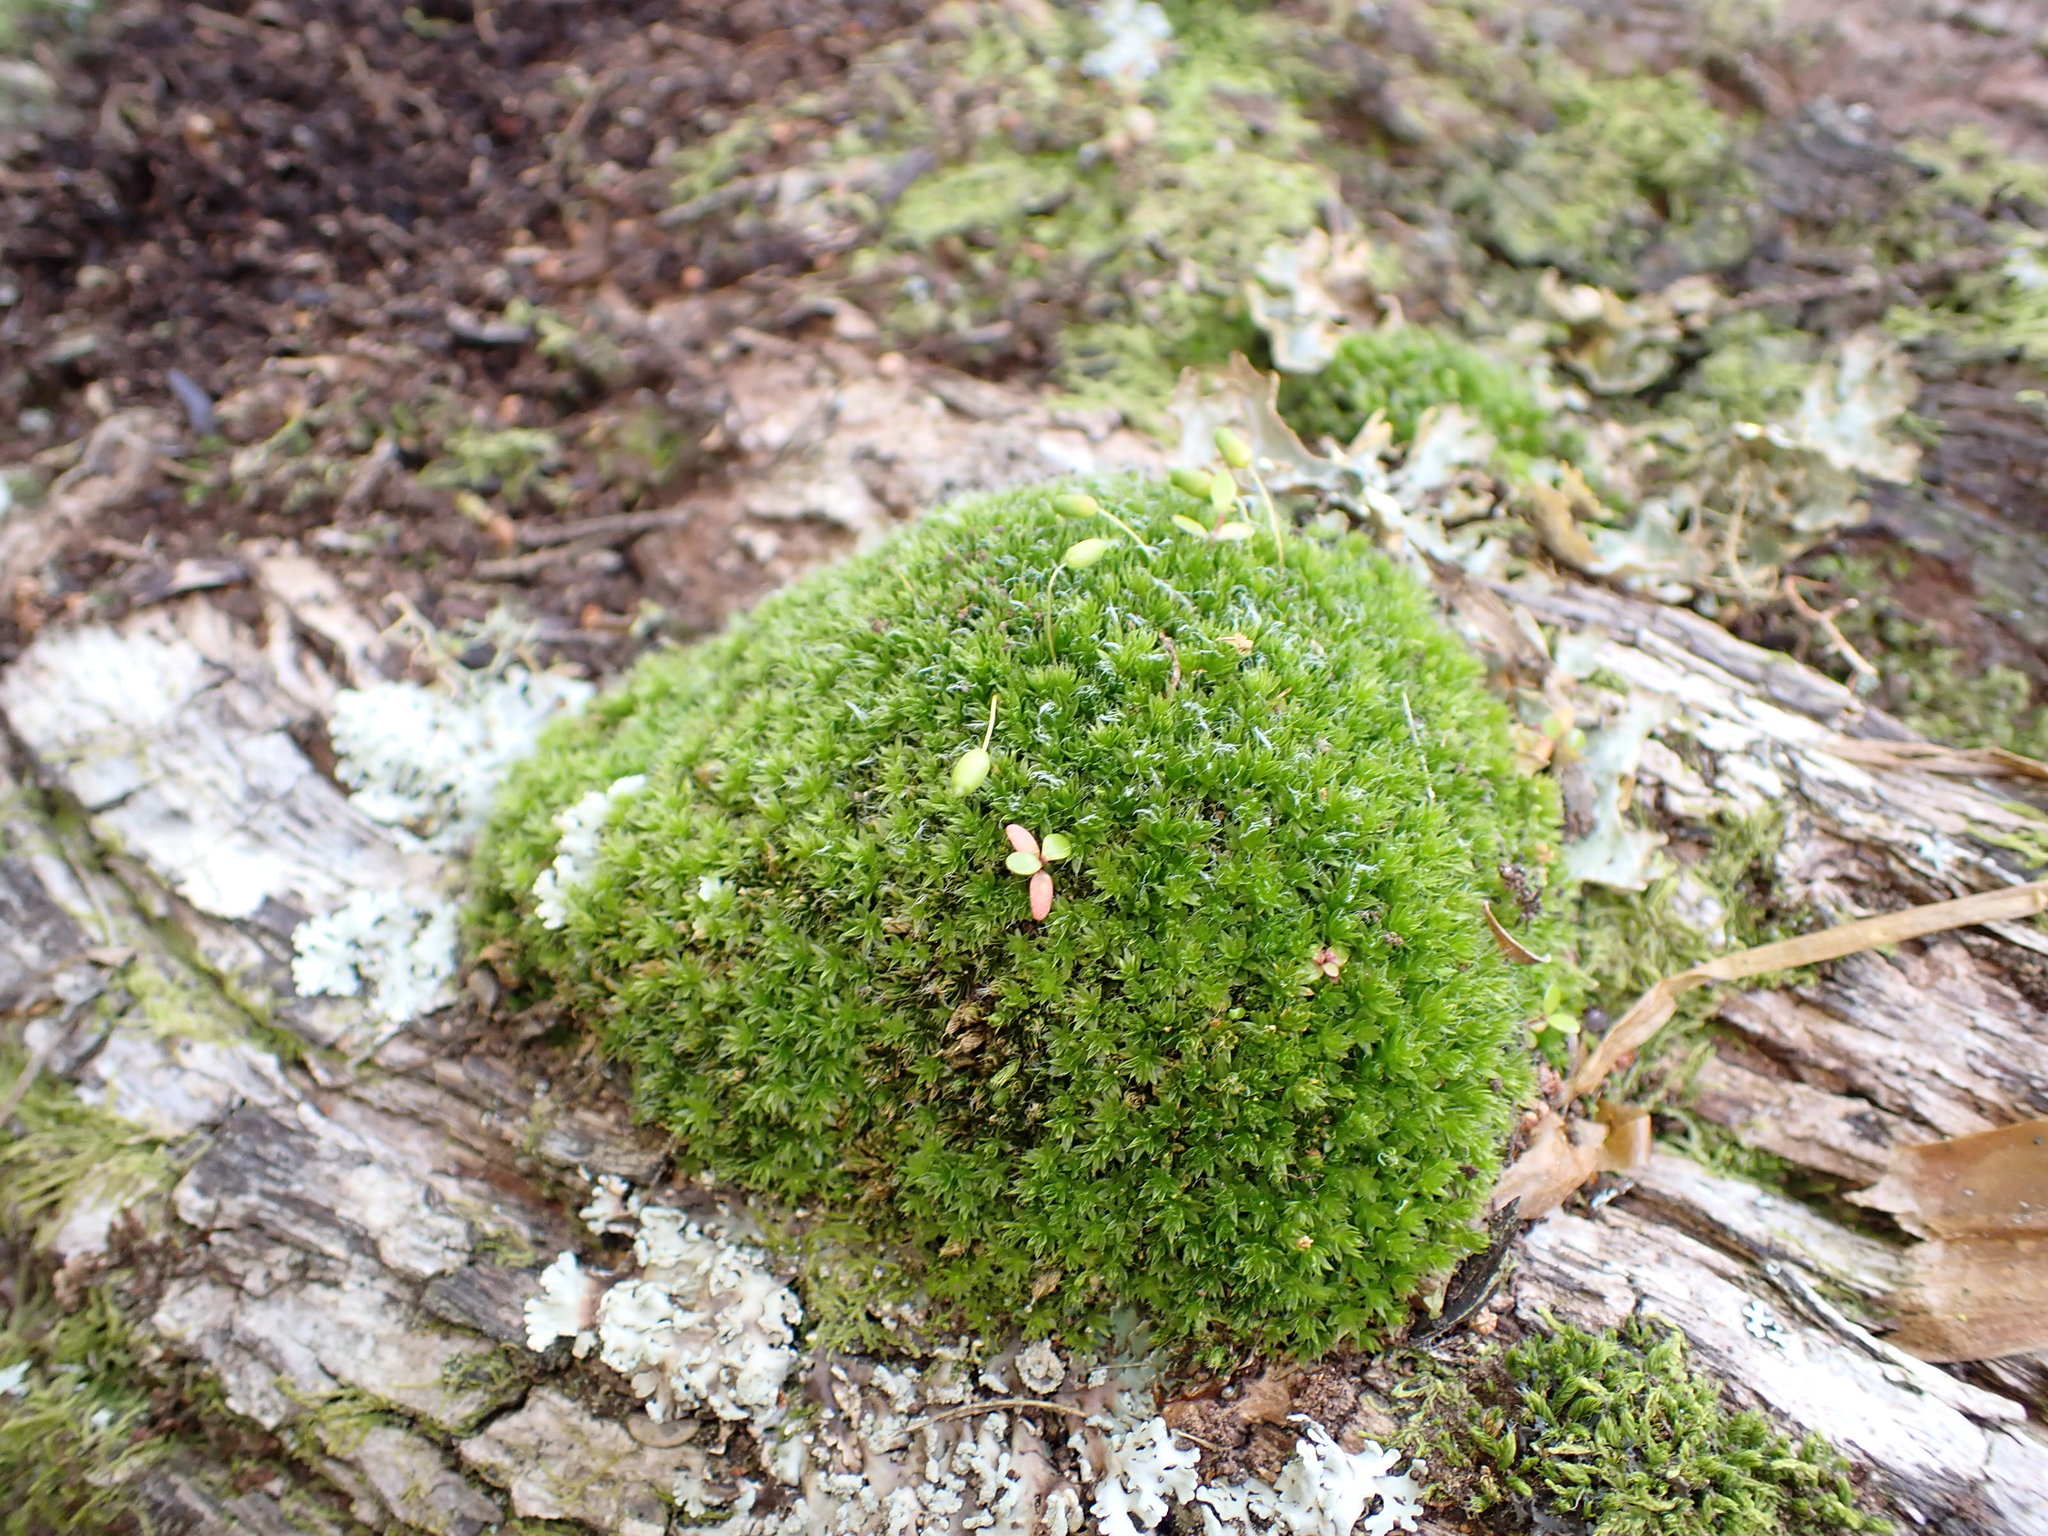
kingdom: Plantae
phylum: Bryophyta
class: Bryopsida
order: Bryales
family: Leptostomataceae
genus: Leptostomum
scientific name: Leptostomum macrocarpon
